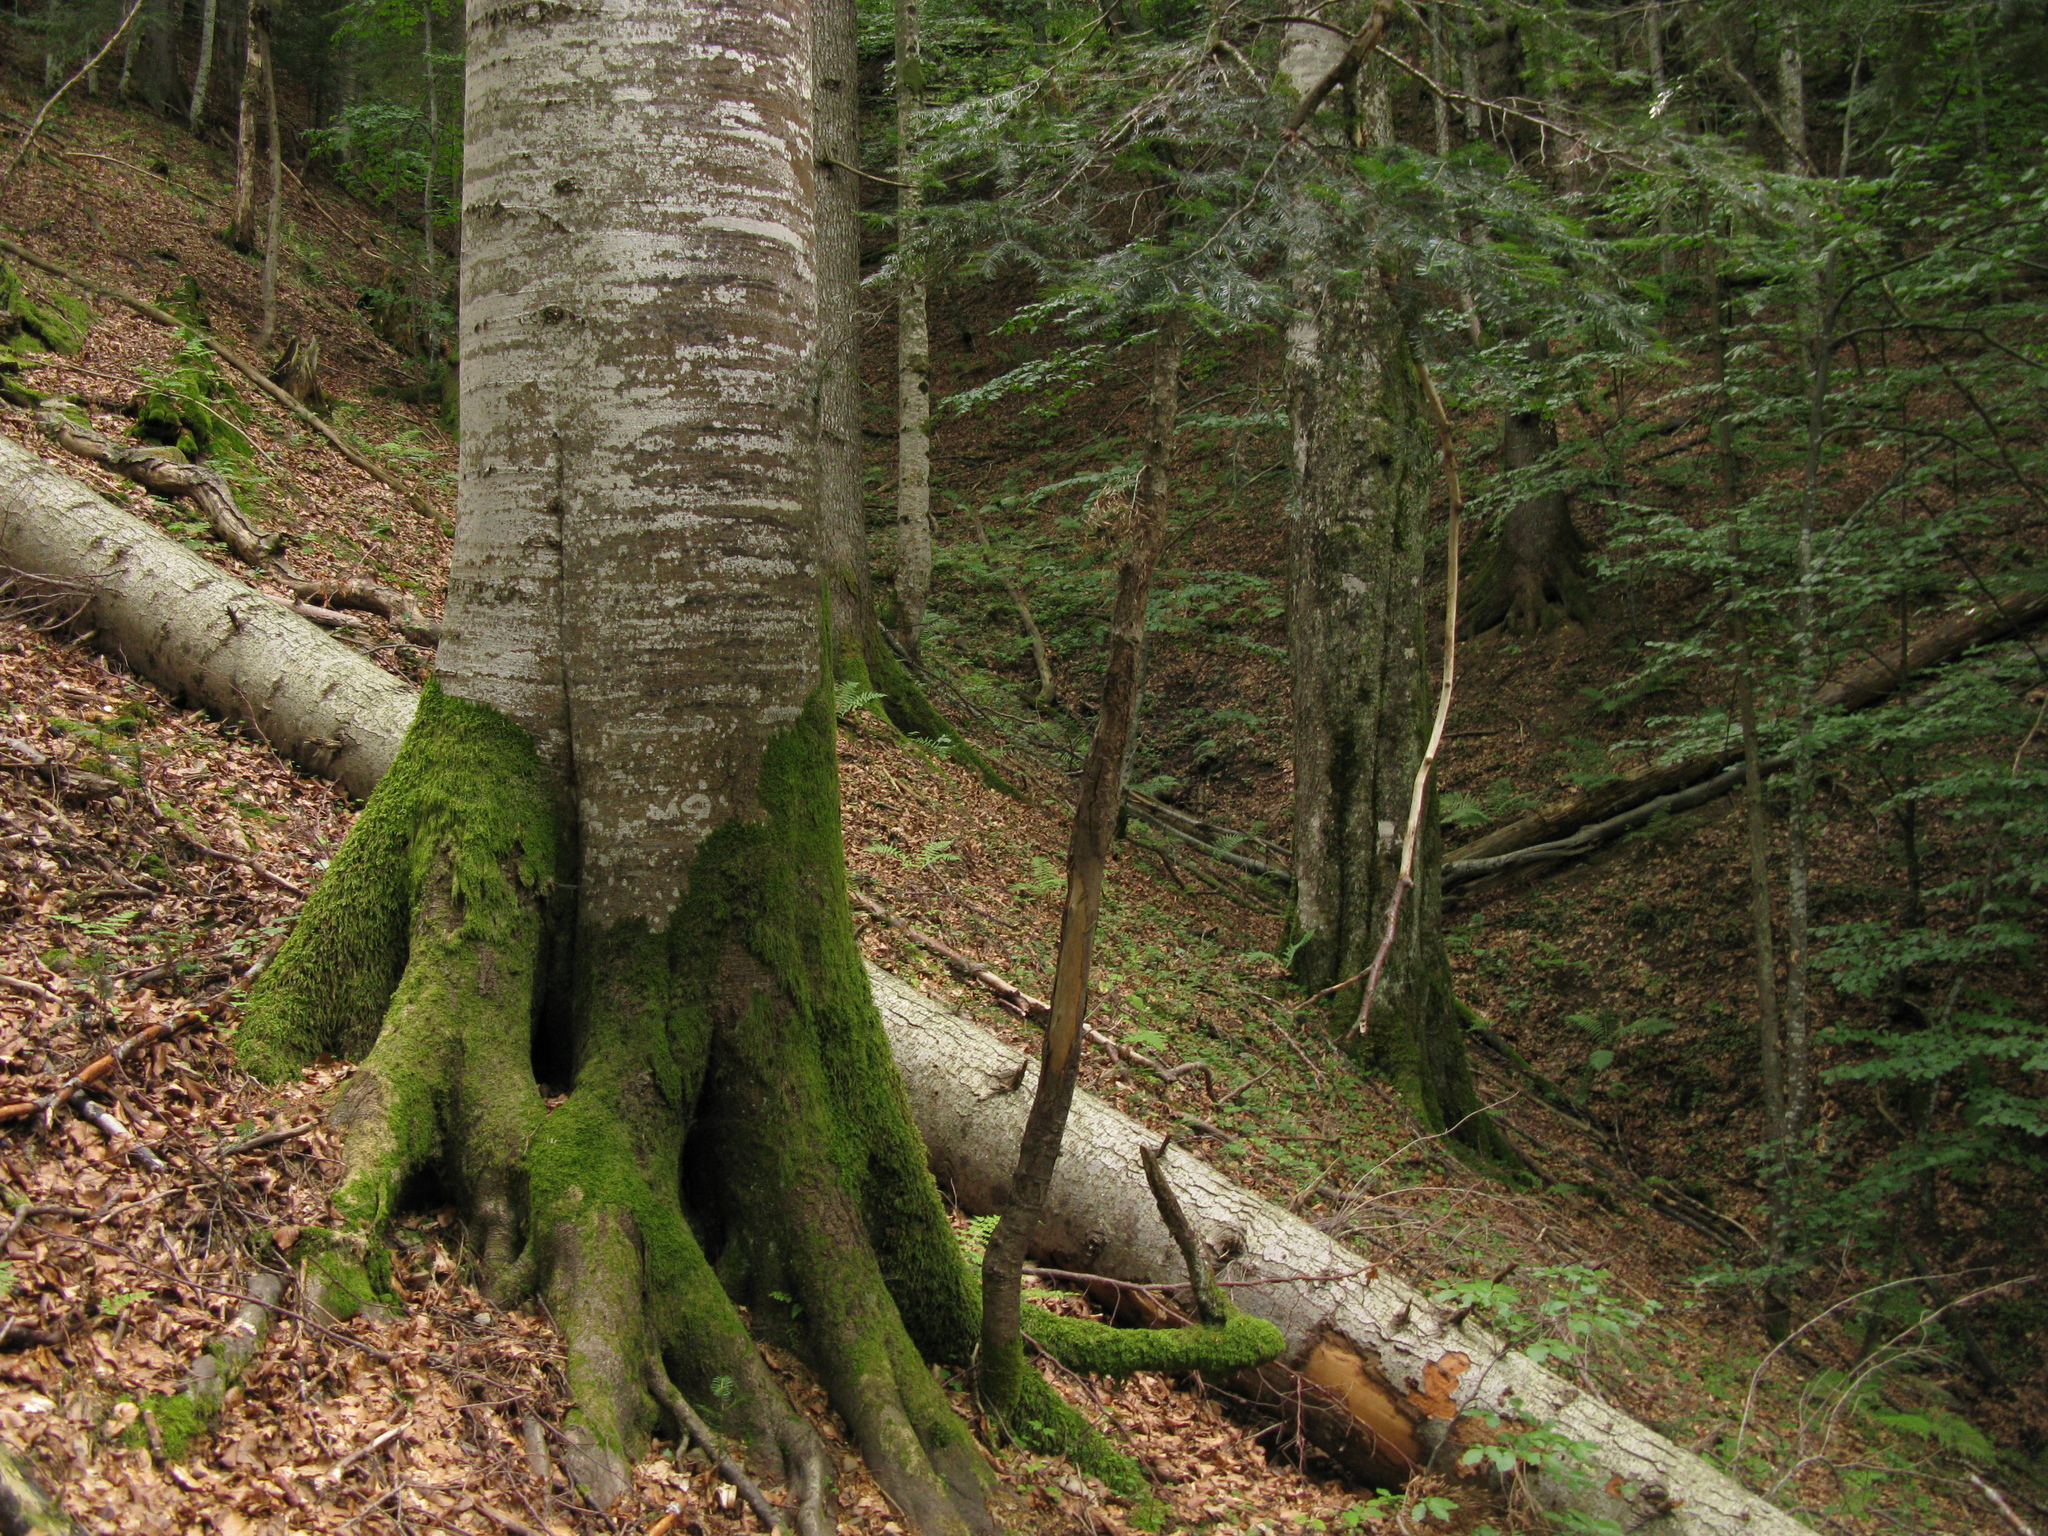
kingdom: Plantae
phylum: Tracheophyta
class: Magnoliopsida
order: Fagales
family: Fagaceae
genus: Fagus
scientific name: Fagus sylvatica
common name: Beech
